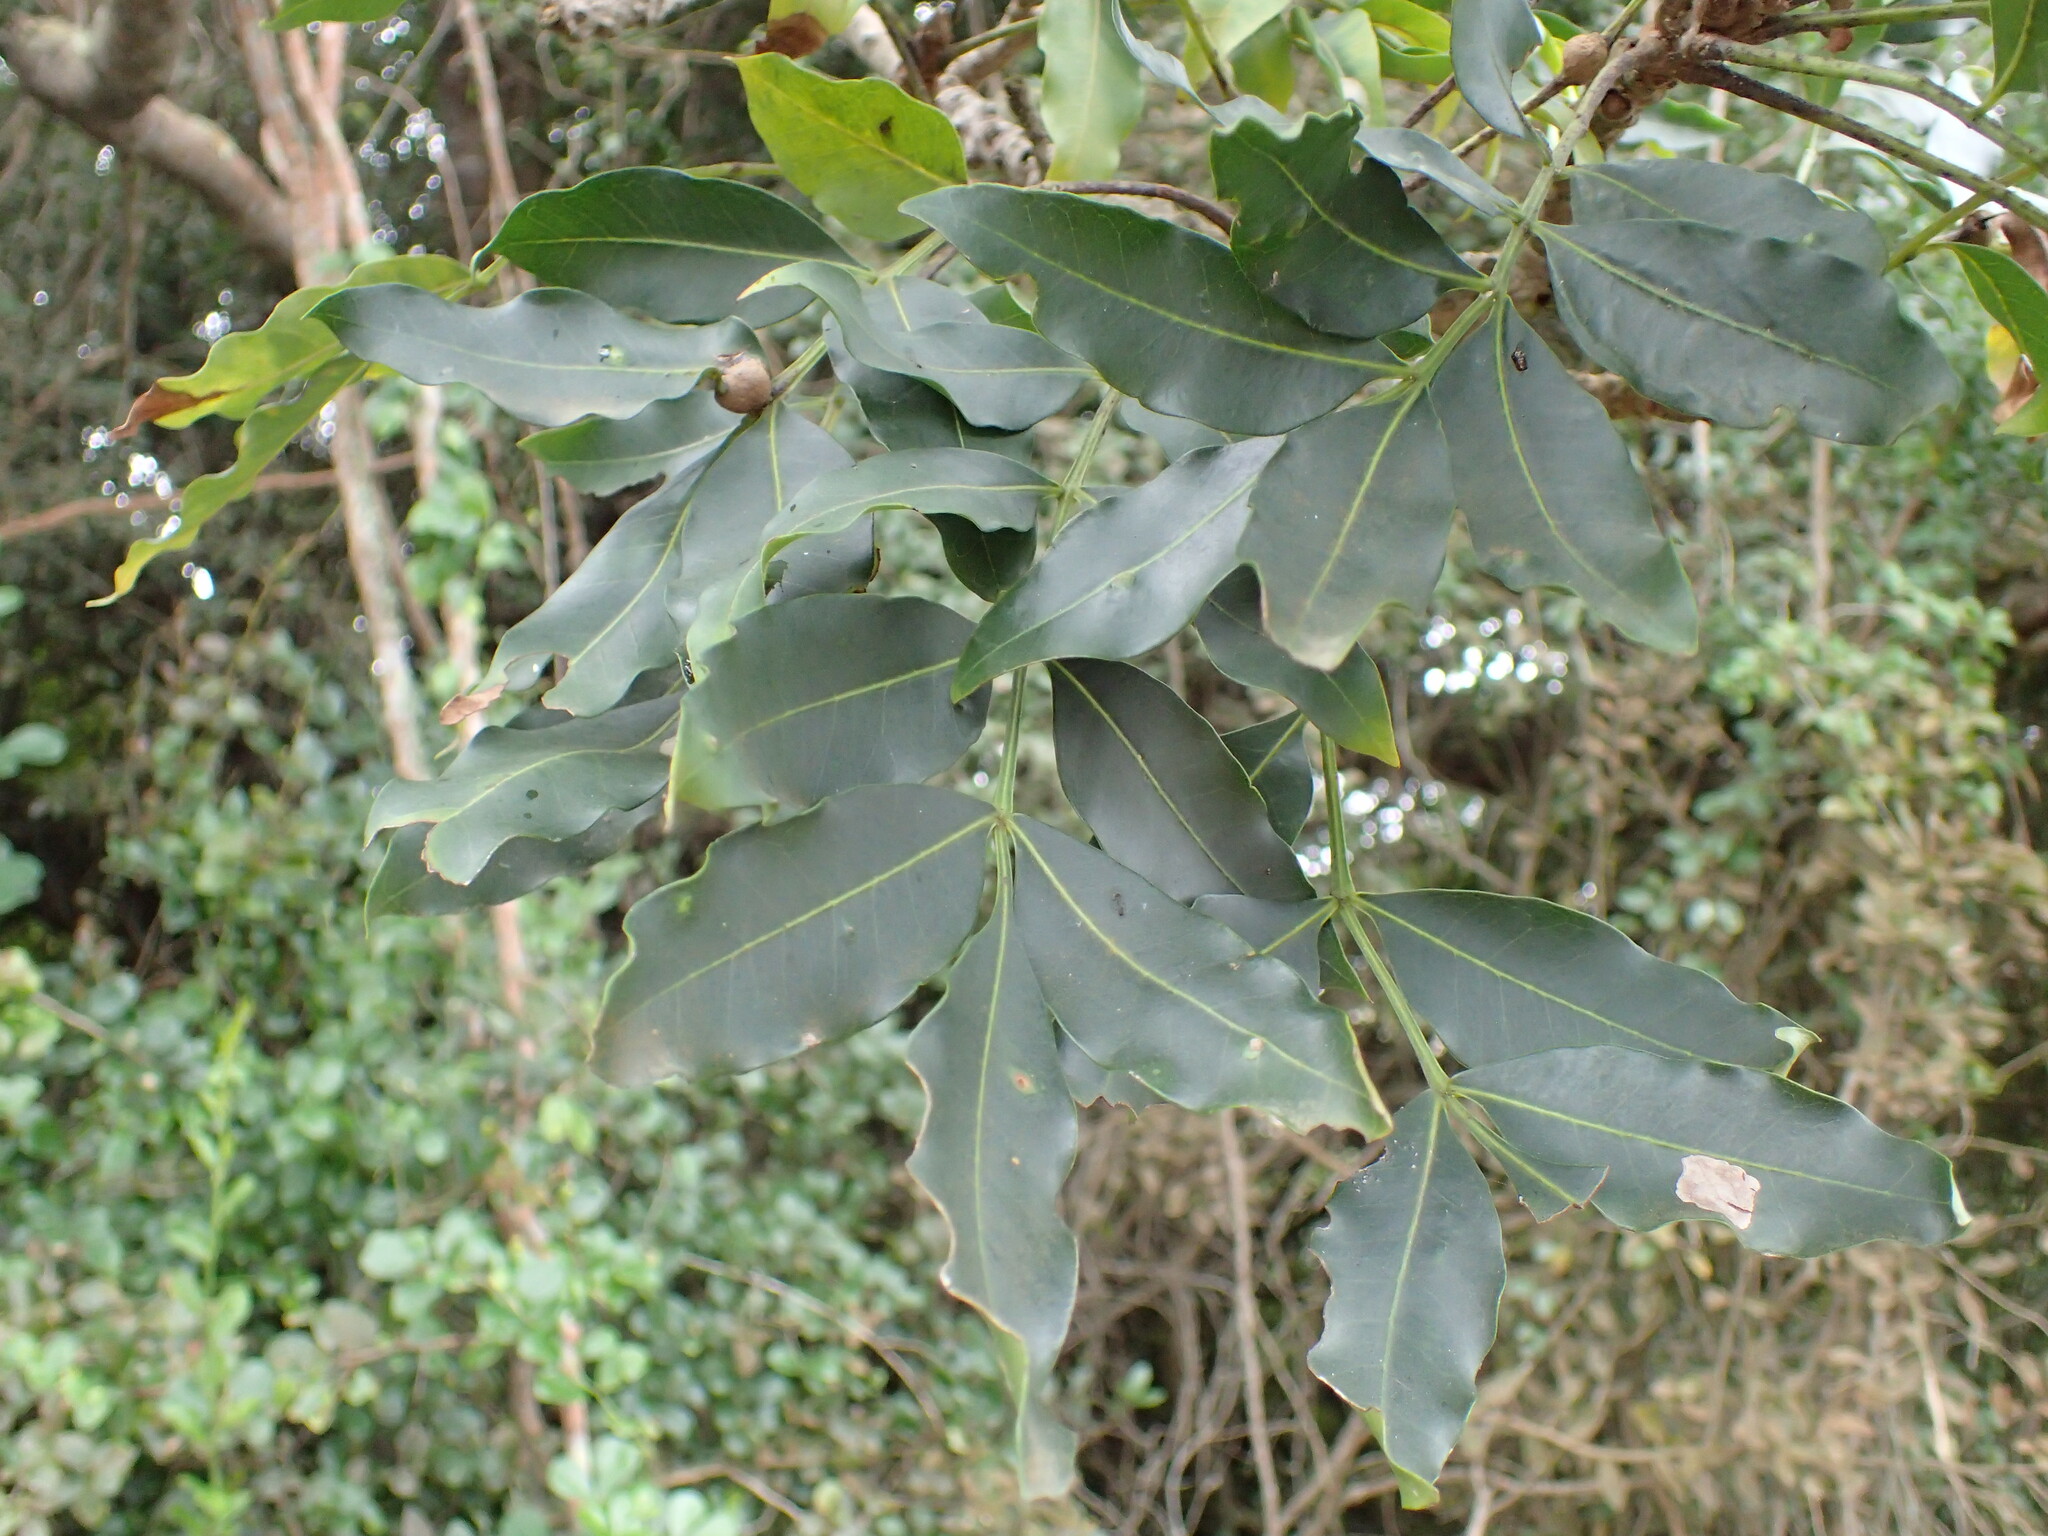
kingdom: Plantae
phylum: Tracheophyta
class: Magnoliopsida
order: Sapindales
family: Meliaceae
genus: Ekebergia
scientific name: Ekebergia capensis
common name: Cape-ash
